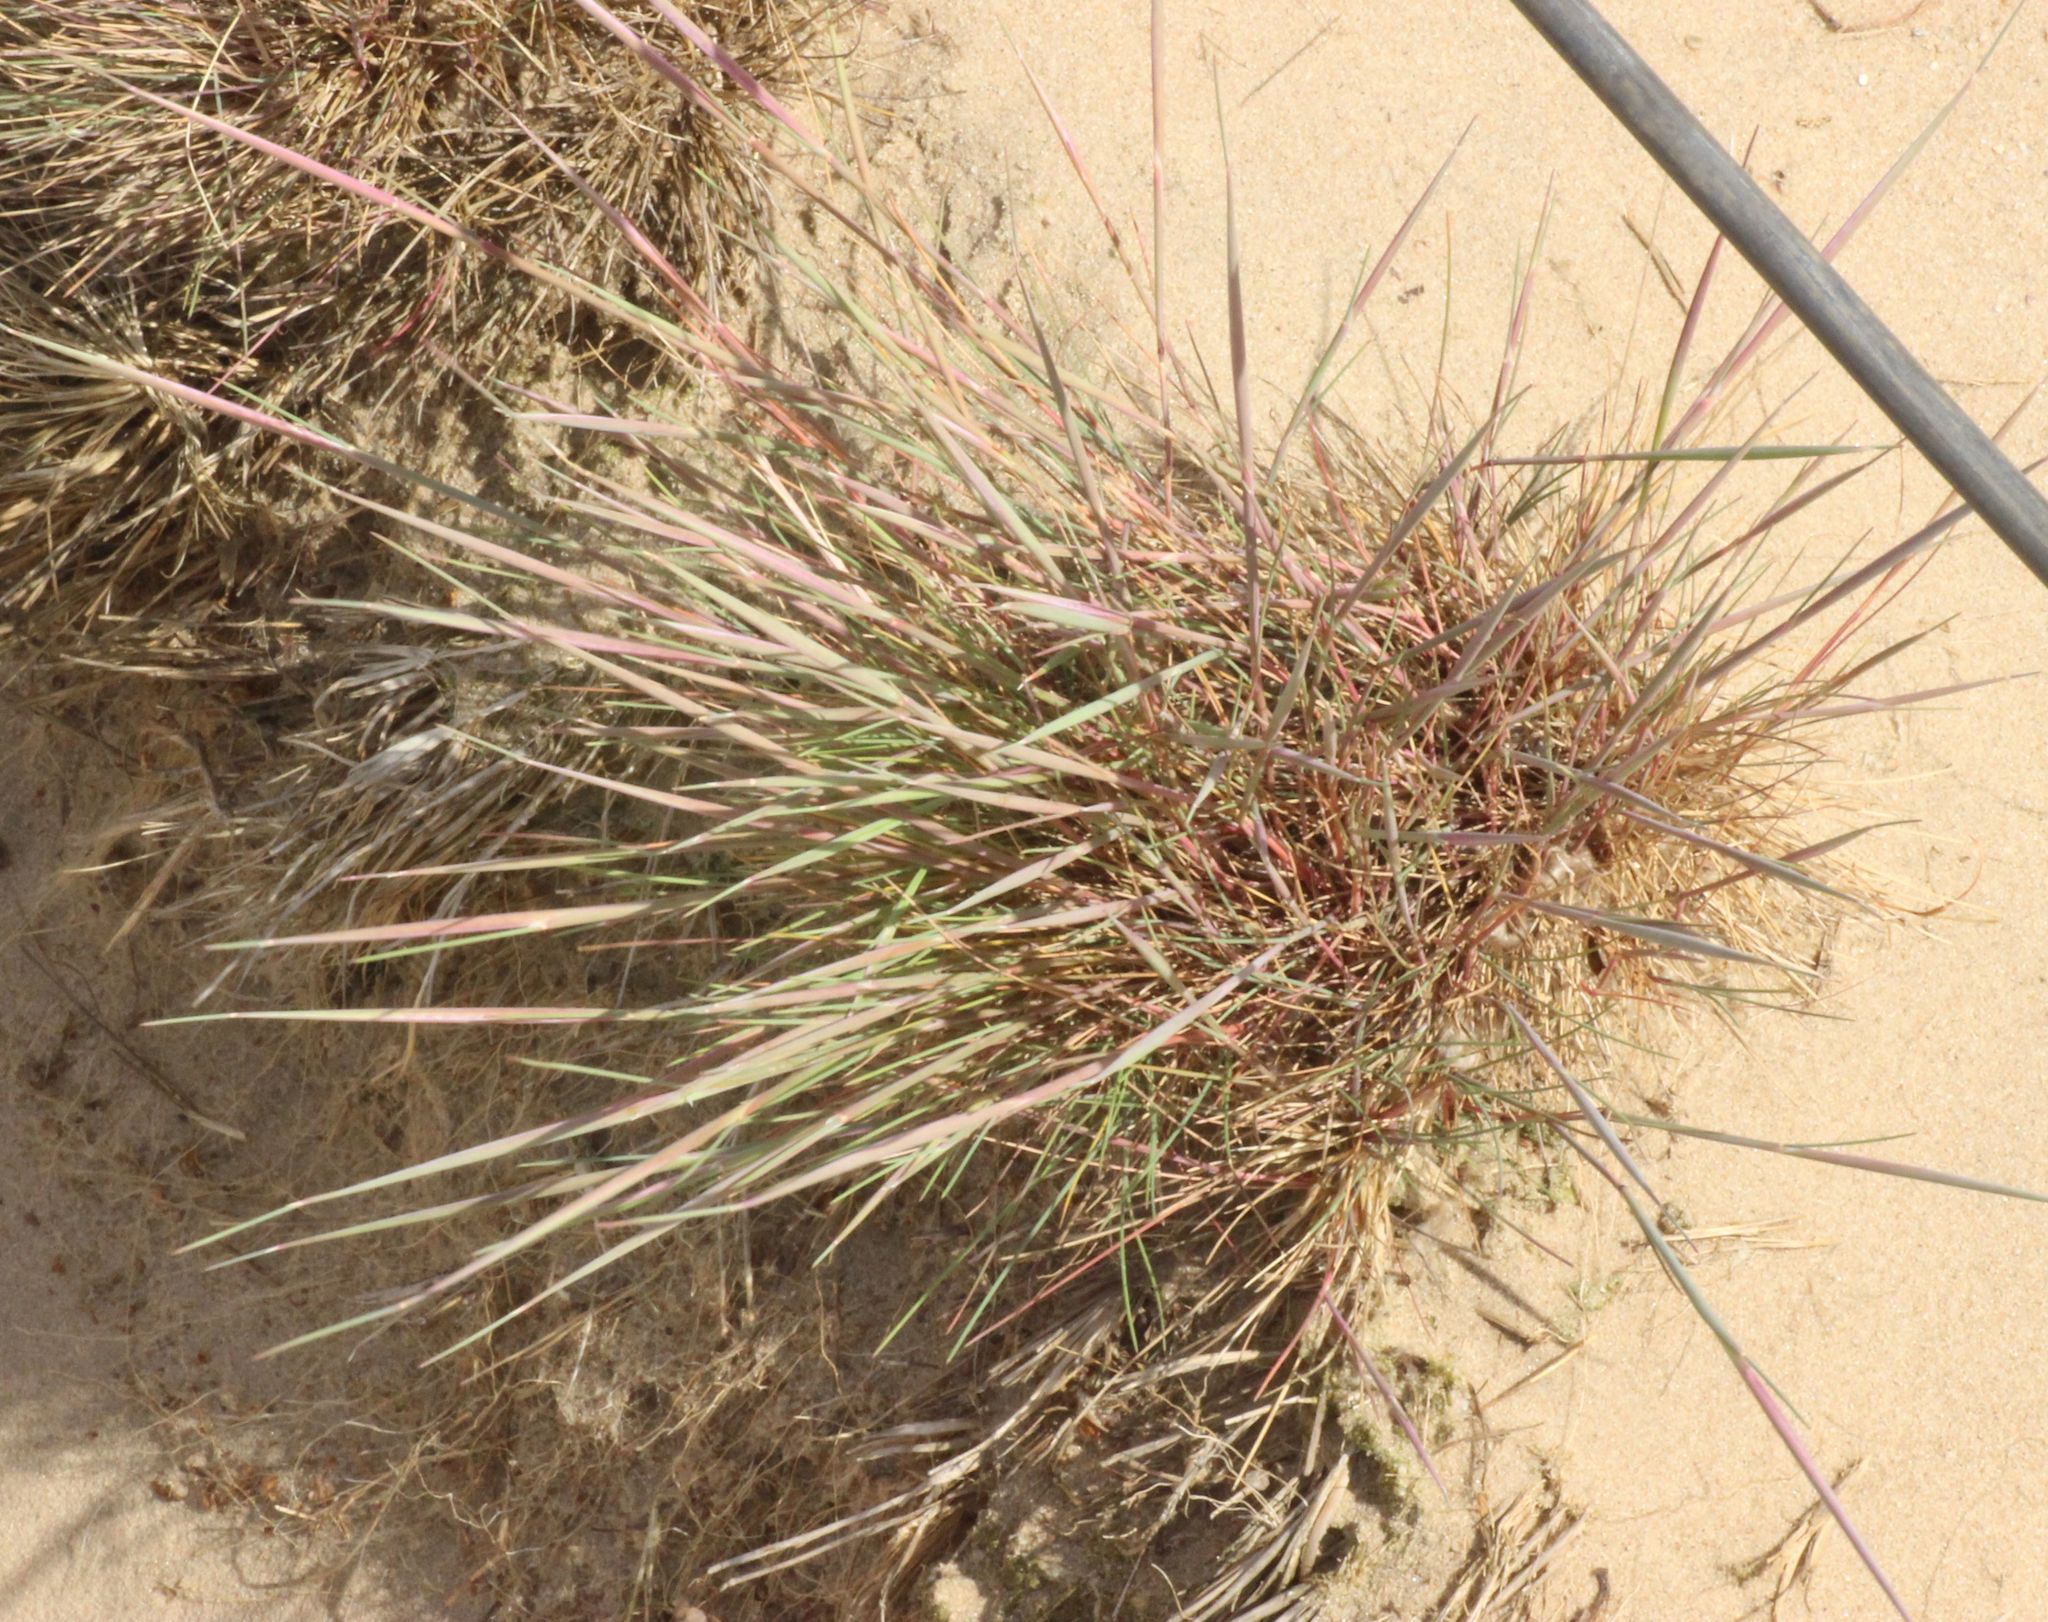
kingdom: Plantae
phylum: Tracheophyta
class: Liliopsida
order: Poales
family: Poaceae
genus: Corynephorus
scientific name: Corynephorus canescens
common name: Grey hair-grass
